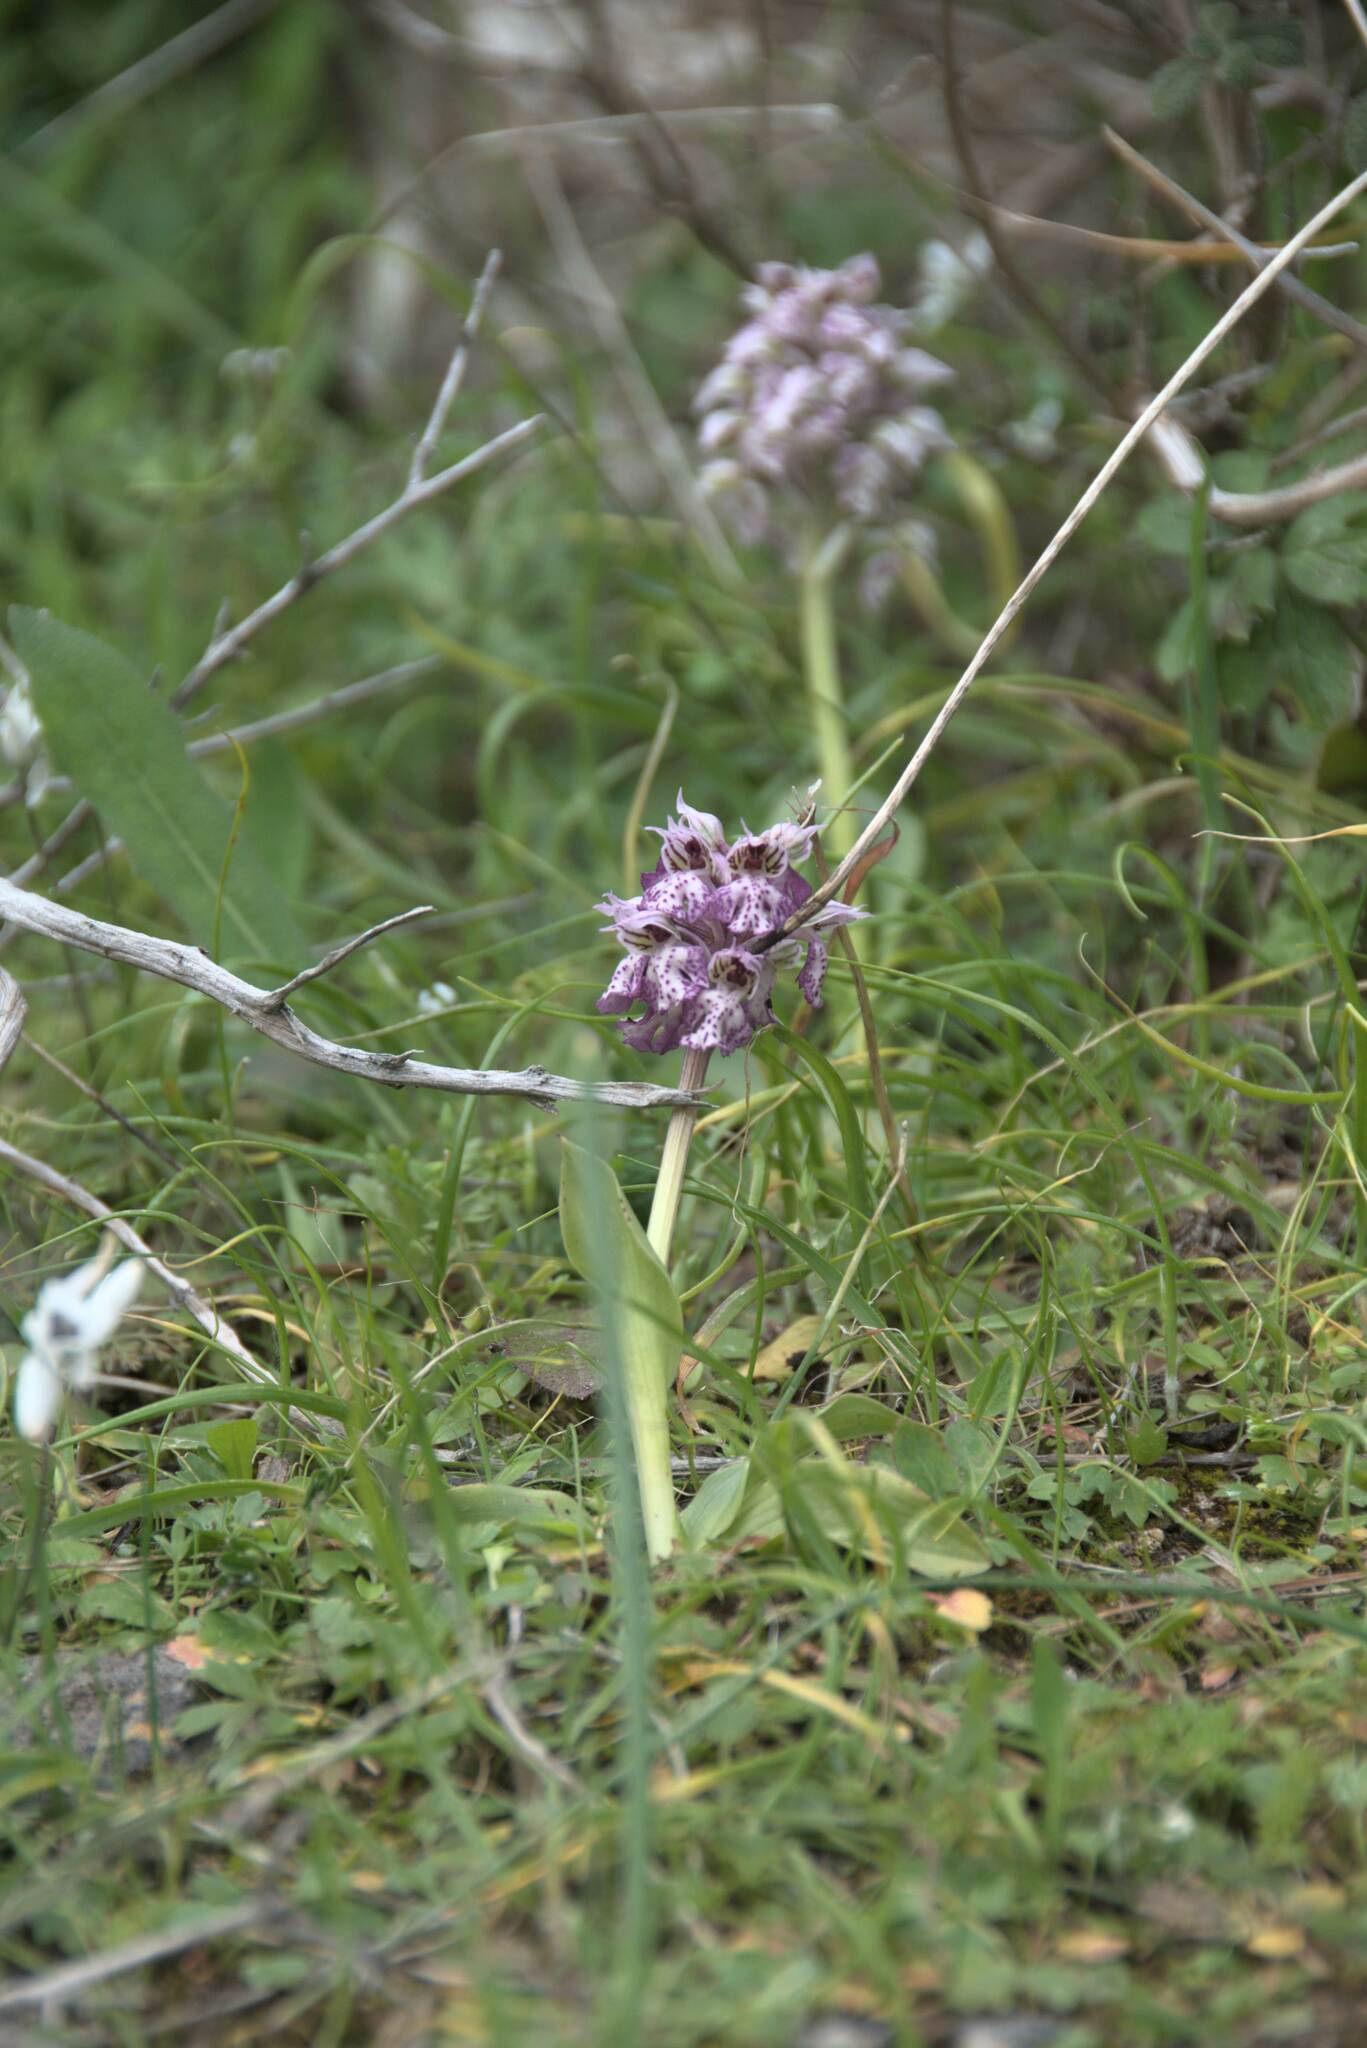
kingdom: Plantae
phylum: Tracheophyta
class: Liliopsida
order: Asparagales
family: Orchidaceae
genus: Neotinea
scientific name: Neotinea lactea
